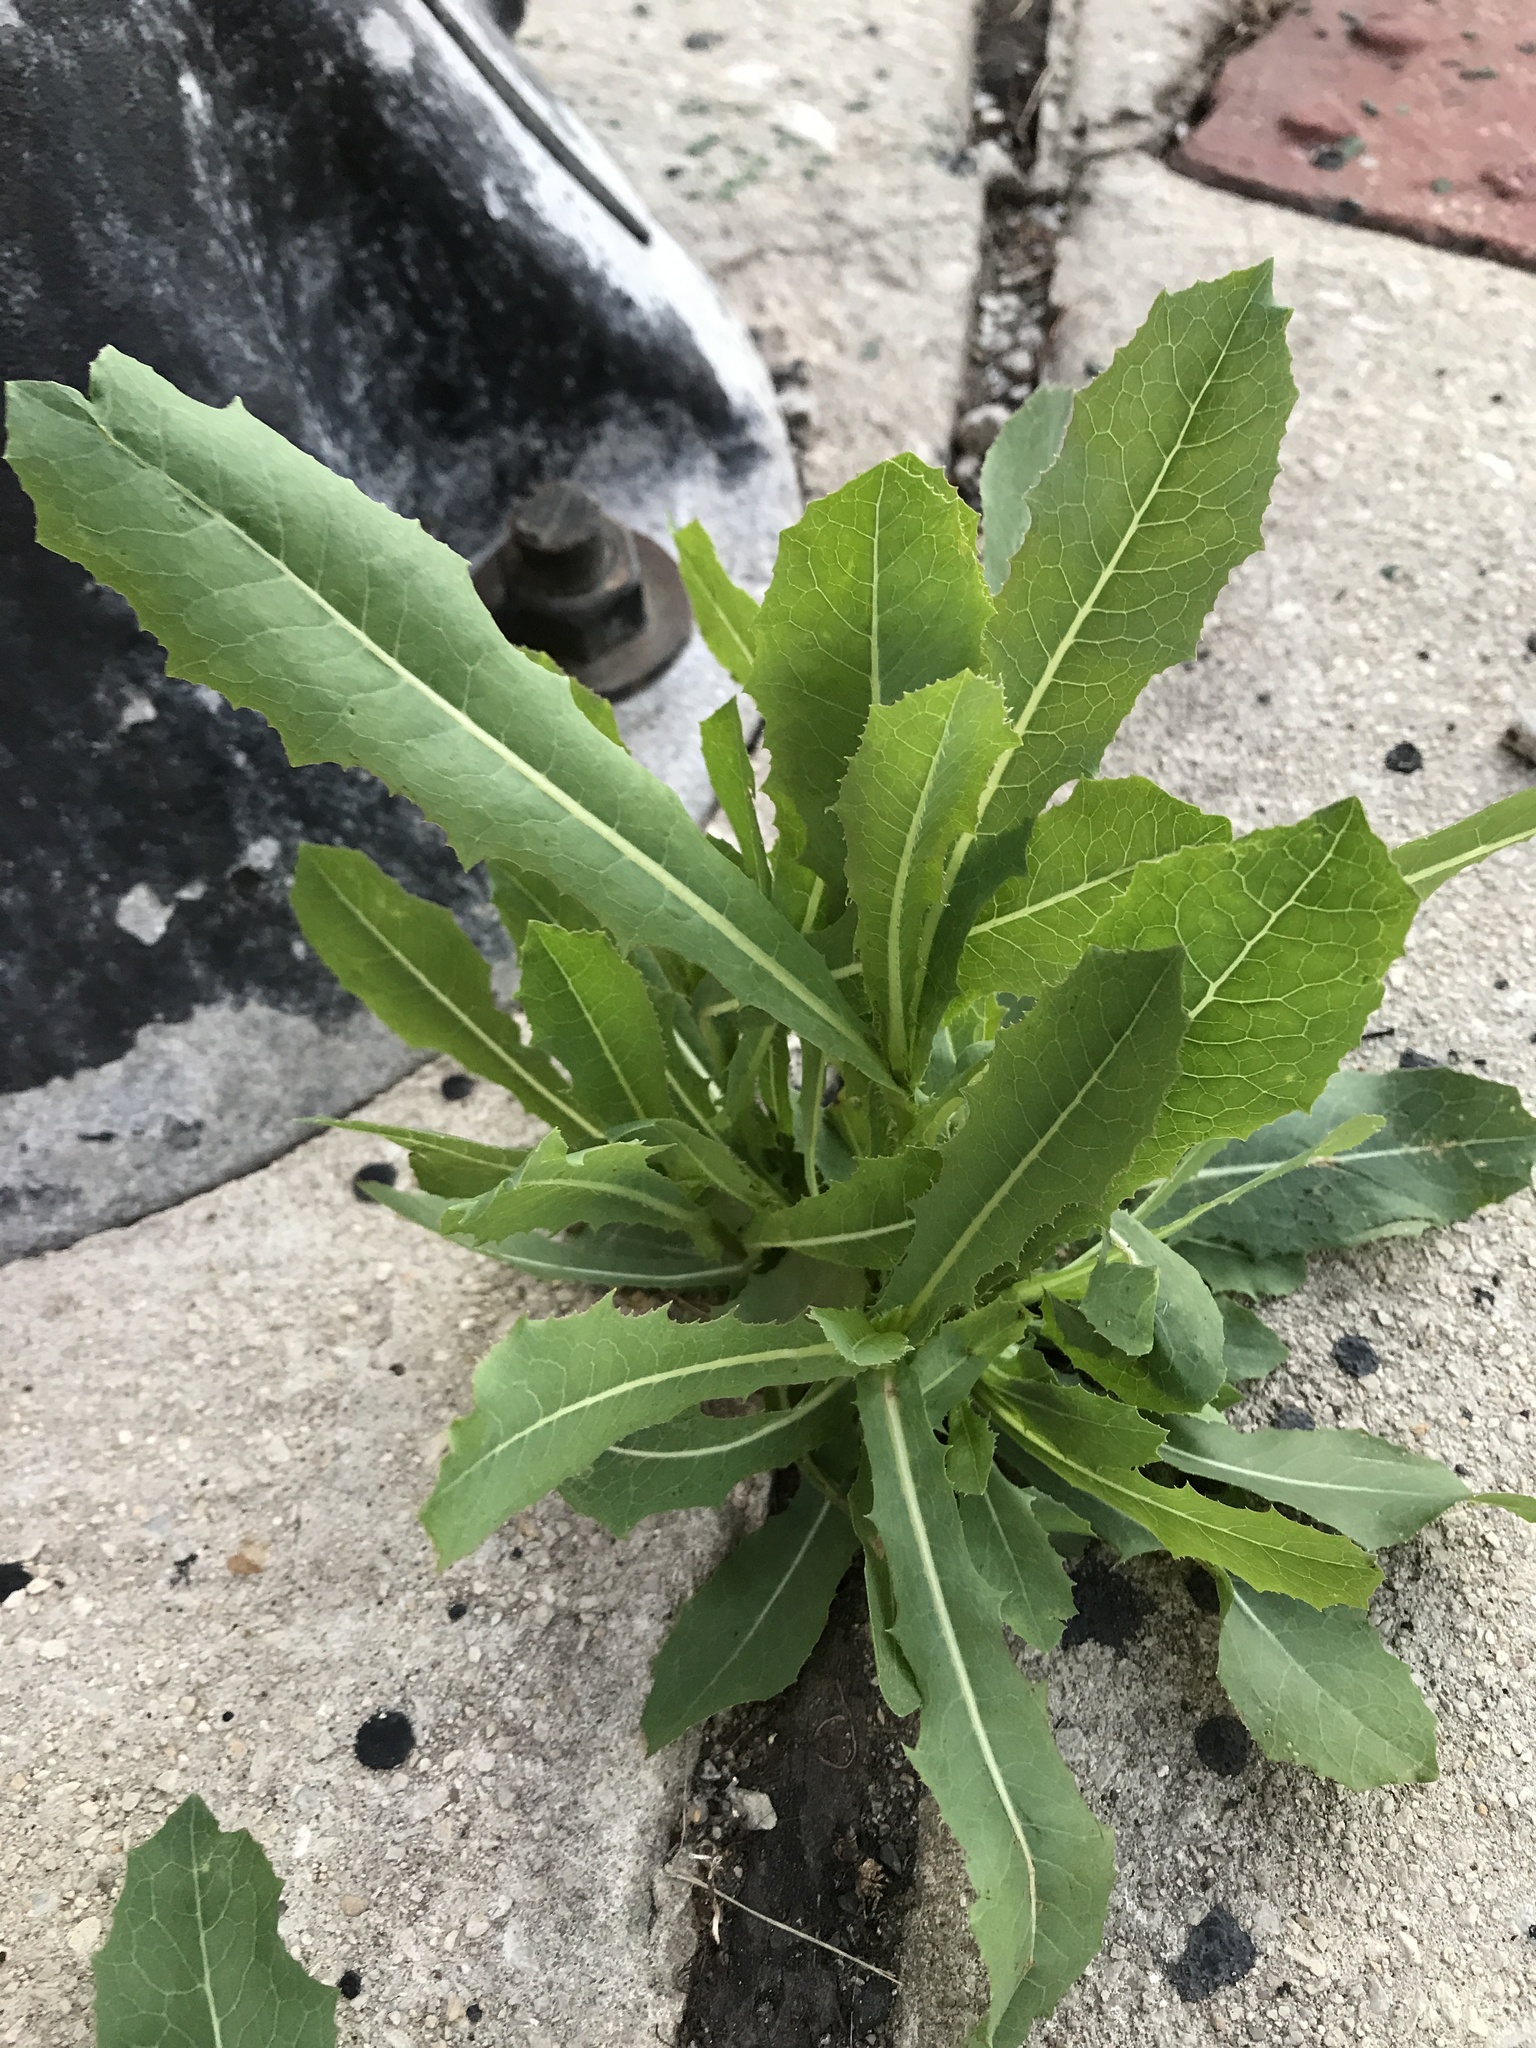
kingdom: Plantae
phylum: Tracheophyta
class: Magnoliopsida
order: Asterales
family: Asteraceae
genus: Lactuca
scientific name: Lactuca serriola
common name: Prickly lettuce
